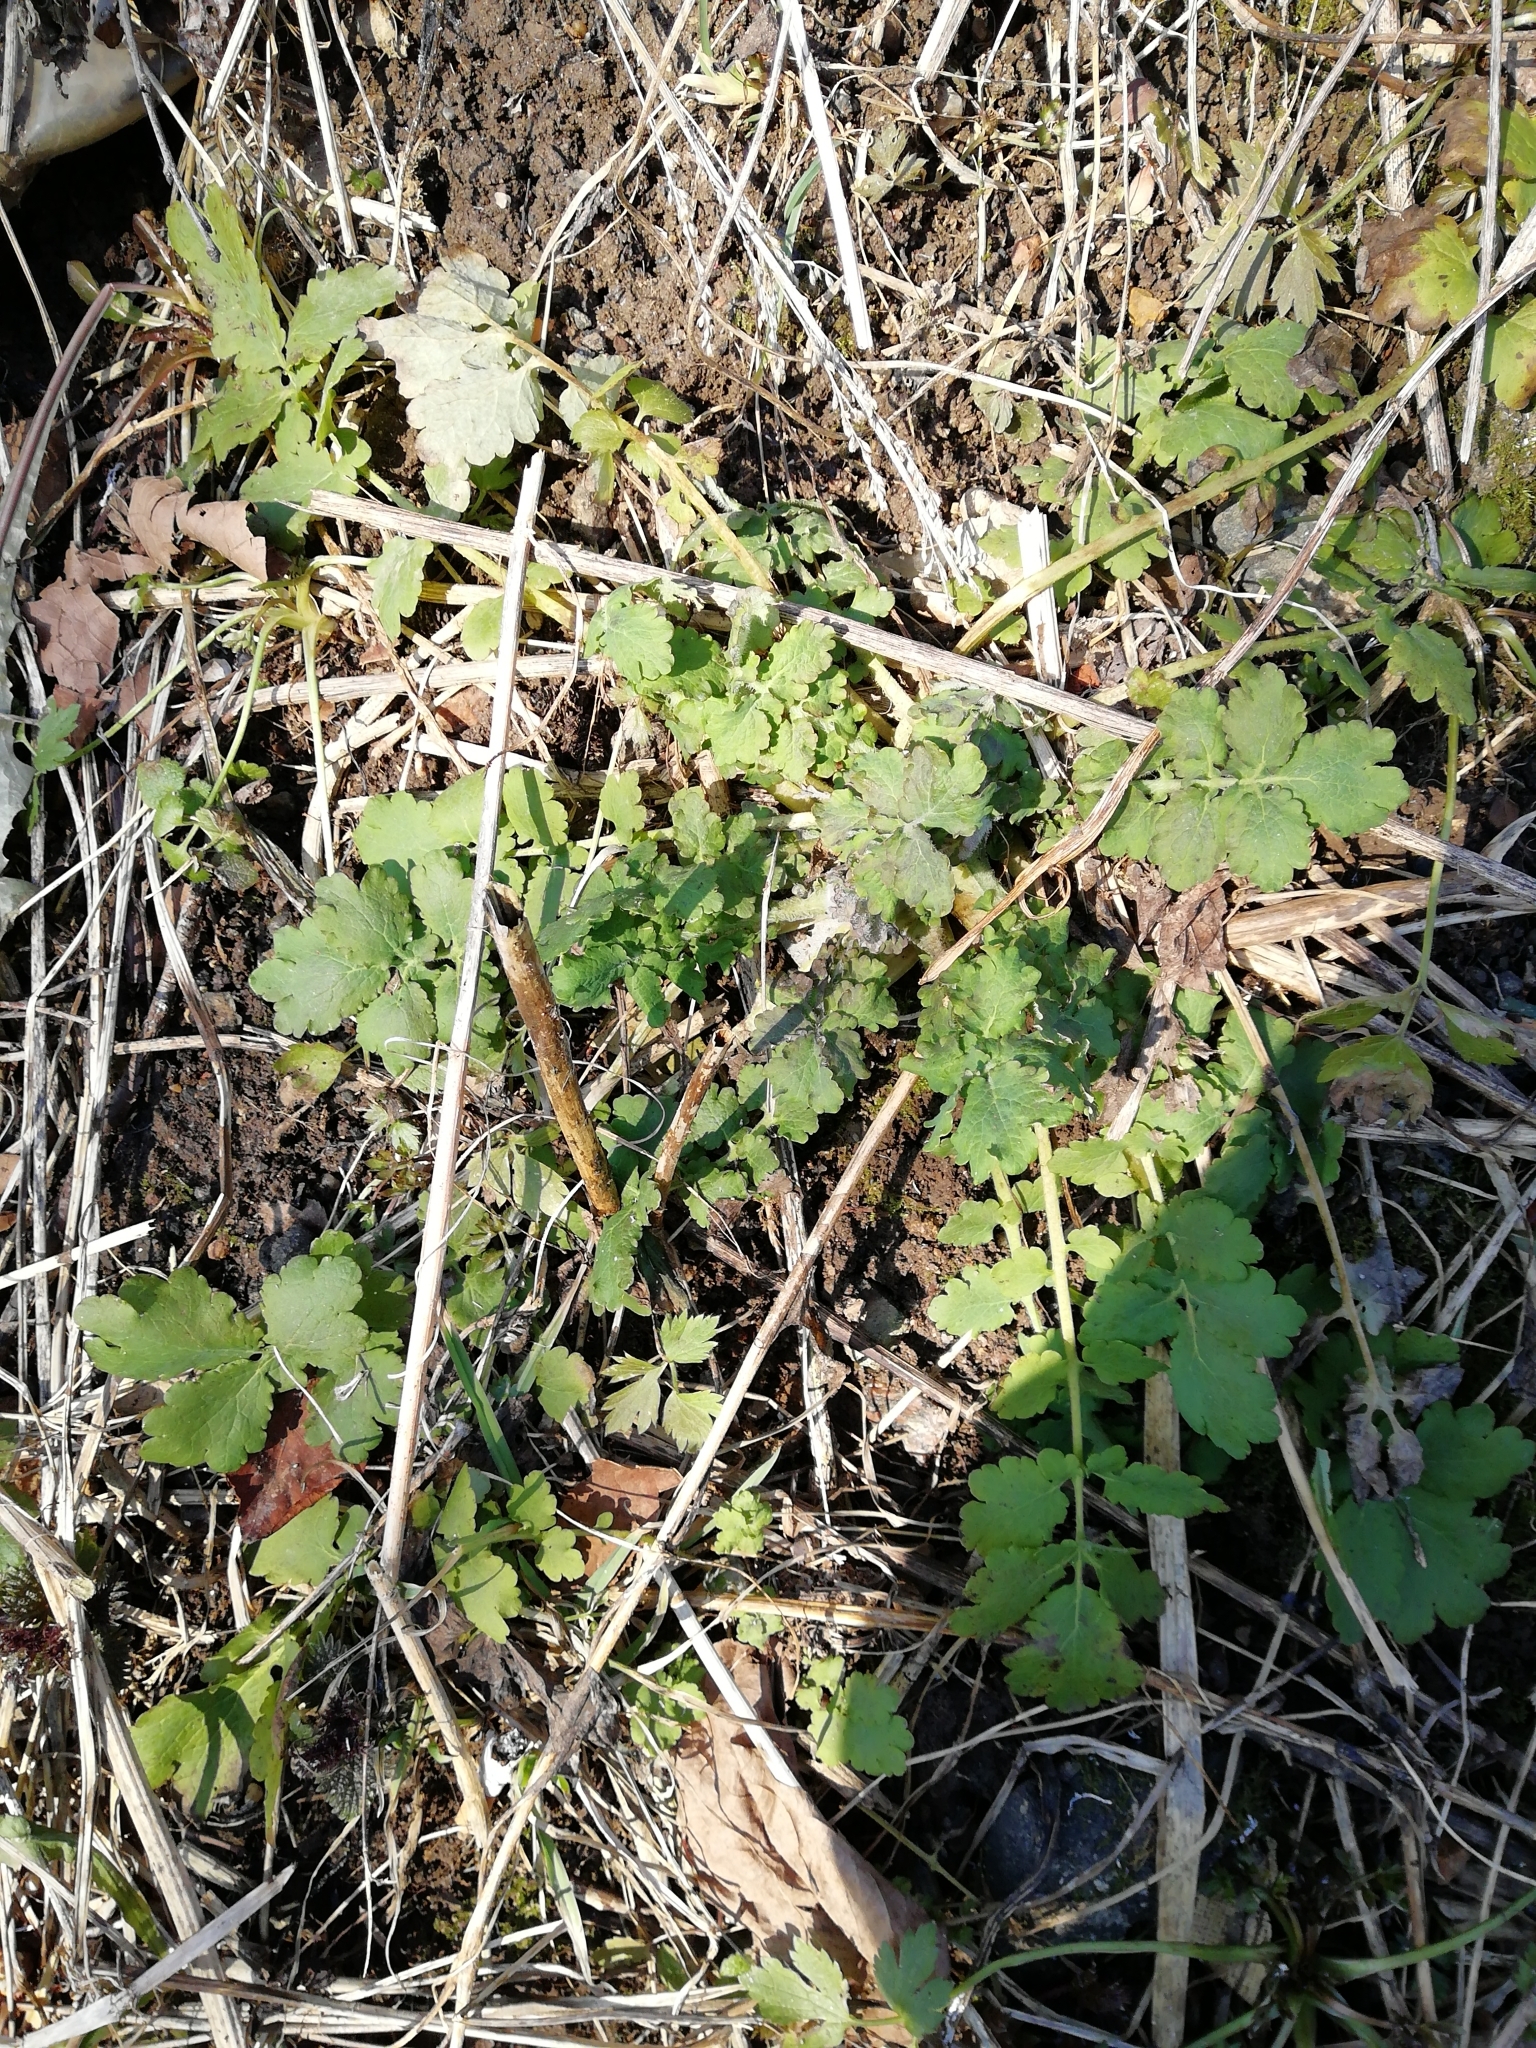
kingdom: Plantae
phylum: Tracheophyta
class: Magnoliopsida
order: Ranunculales
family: Papaveraceae
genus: Chelidonium
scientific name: Chelidonium majus
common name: Greater celandine
